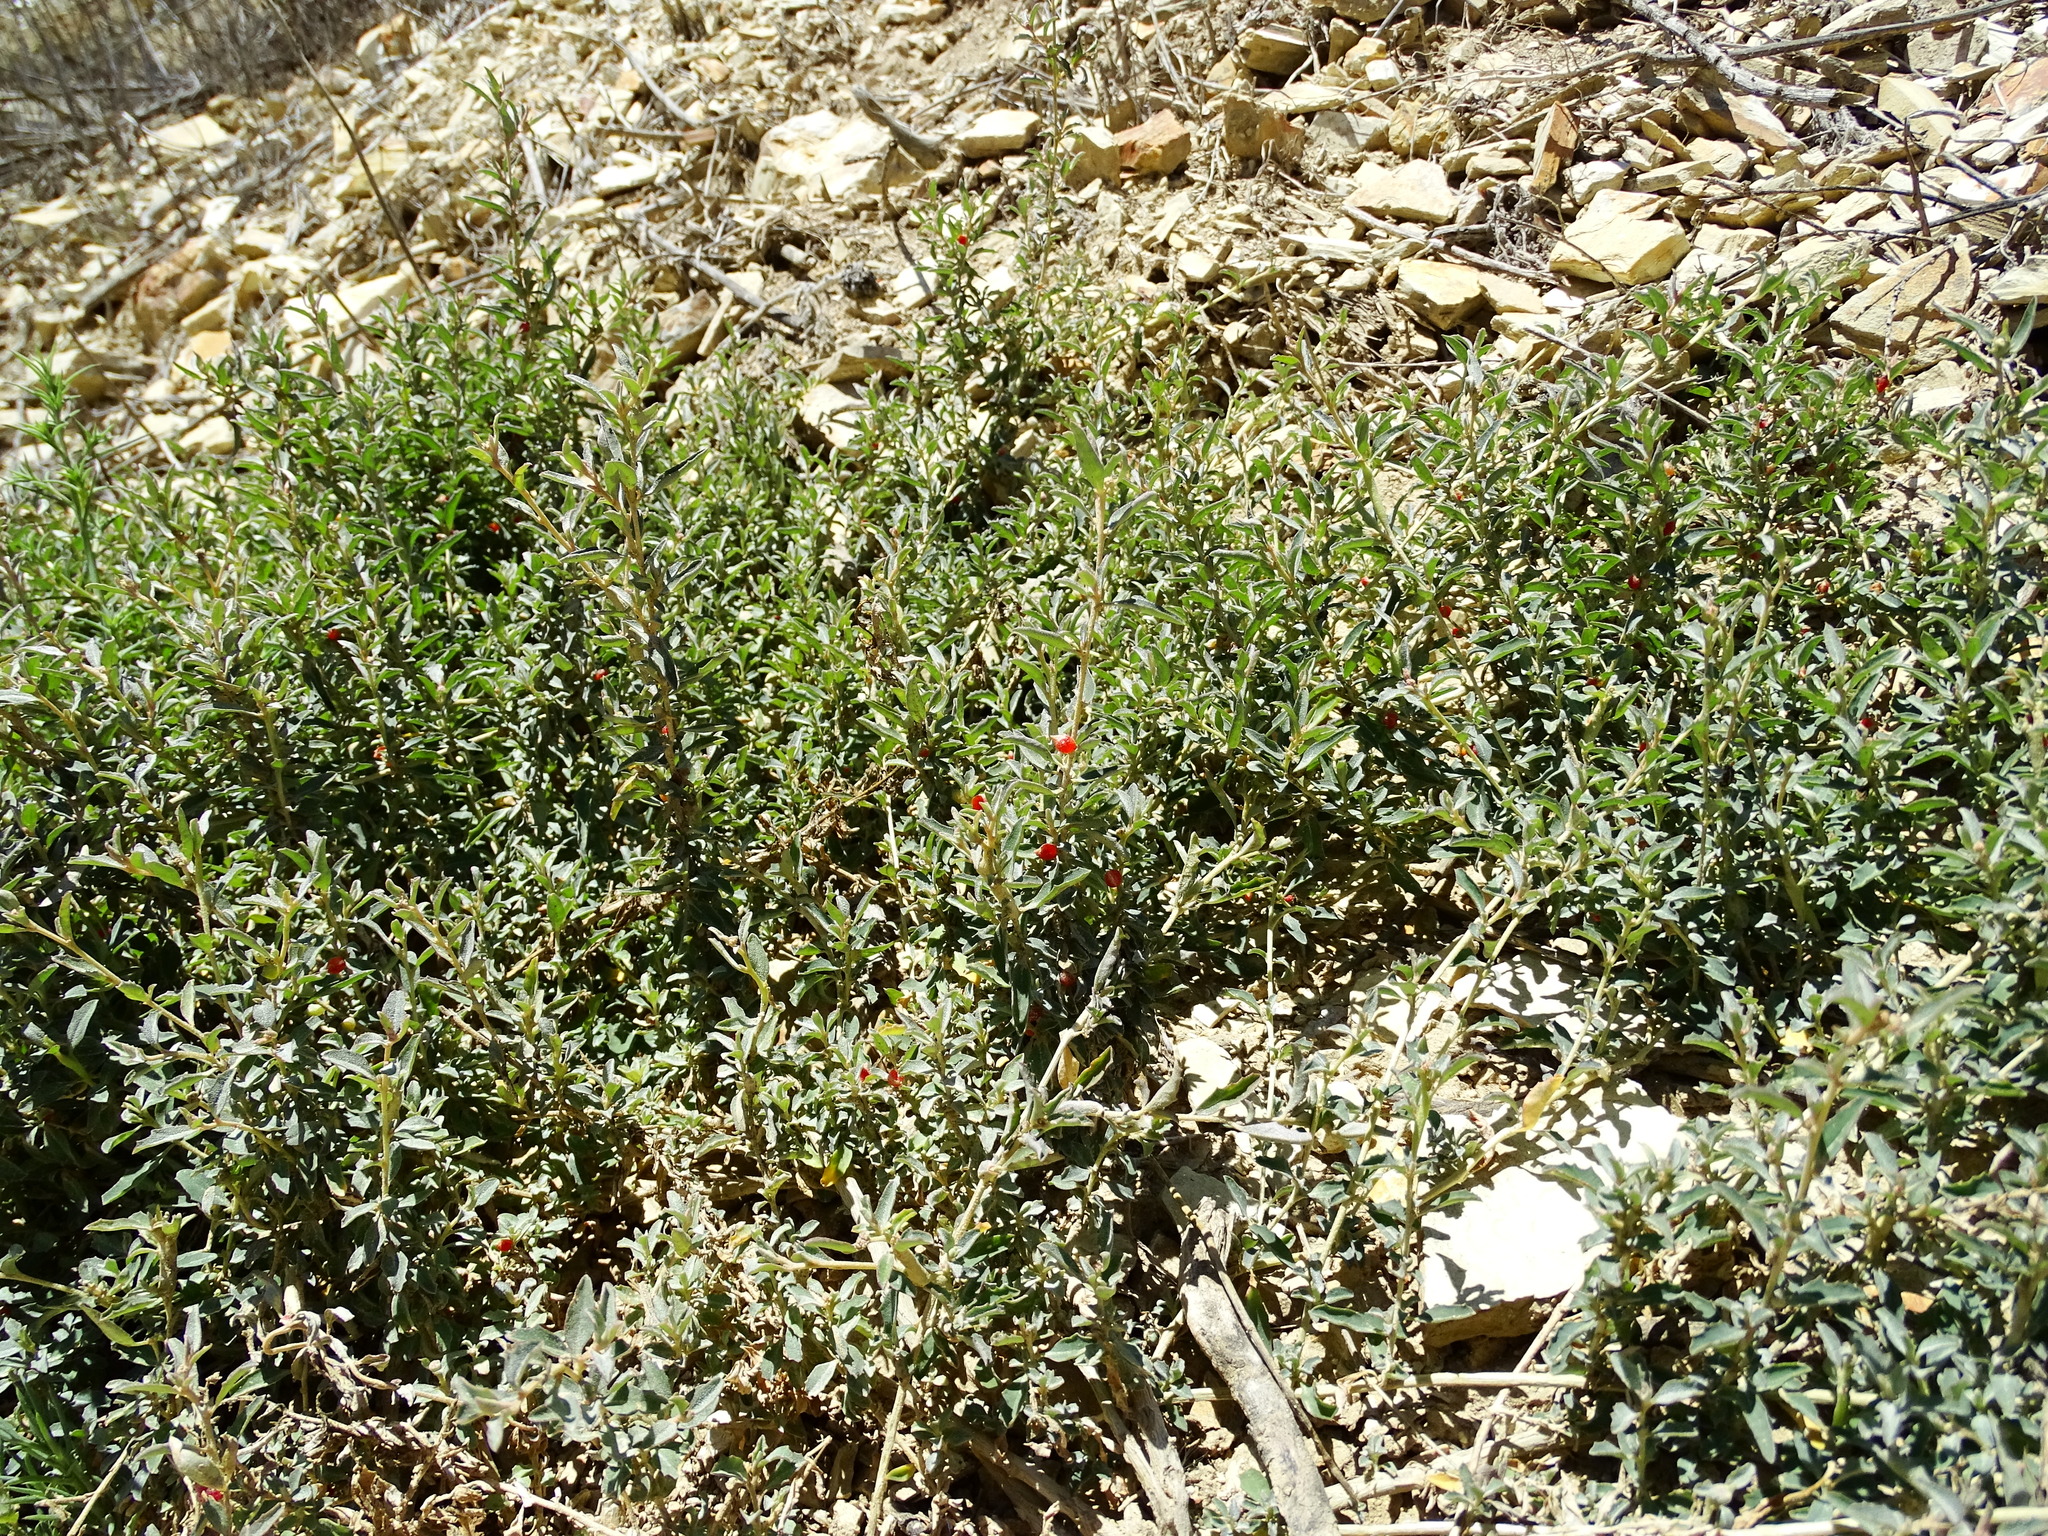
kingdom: Plantae
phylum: Tracheophyta
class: Magnoliopsida
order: Caryophyllales
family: Amaranthaceae
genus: Atriplex
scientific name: Atriplex semibaccata
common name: Australian saltbush
